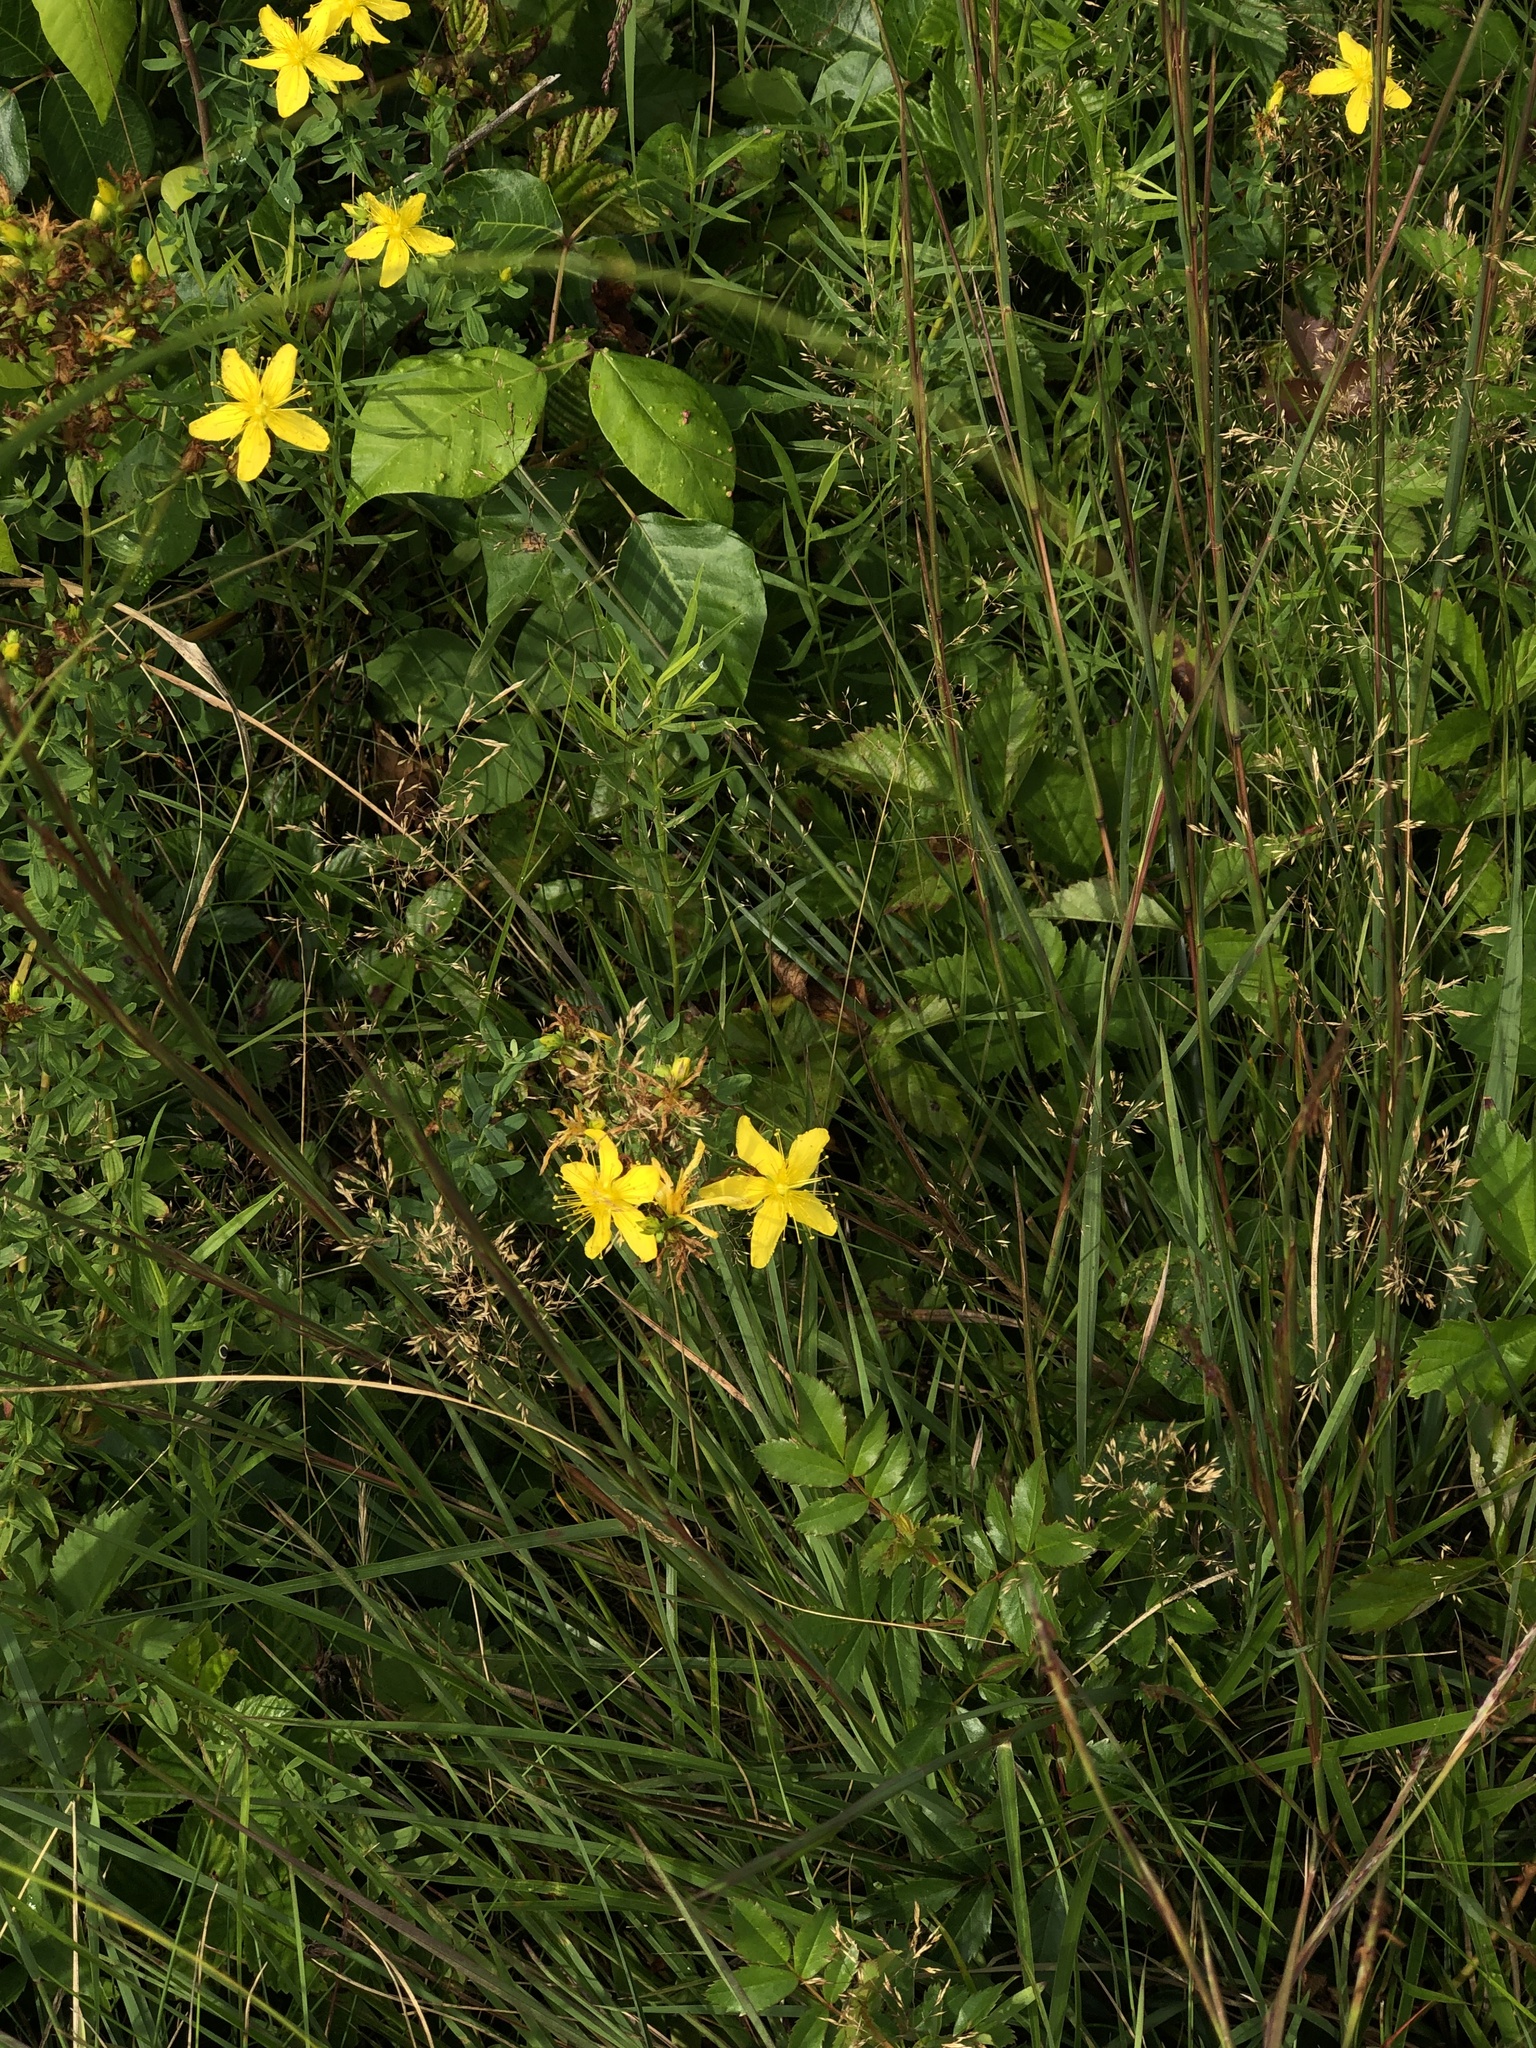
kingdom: Plantae
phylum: Tracheophyta
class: Magnoliopsida
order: Malpighiales
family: Hypericaceae
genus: Hypericum
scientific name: Hypericum perforatum
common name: Common st. johnswort
